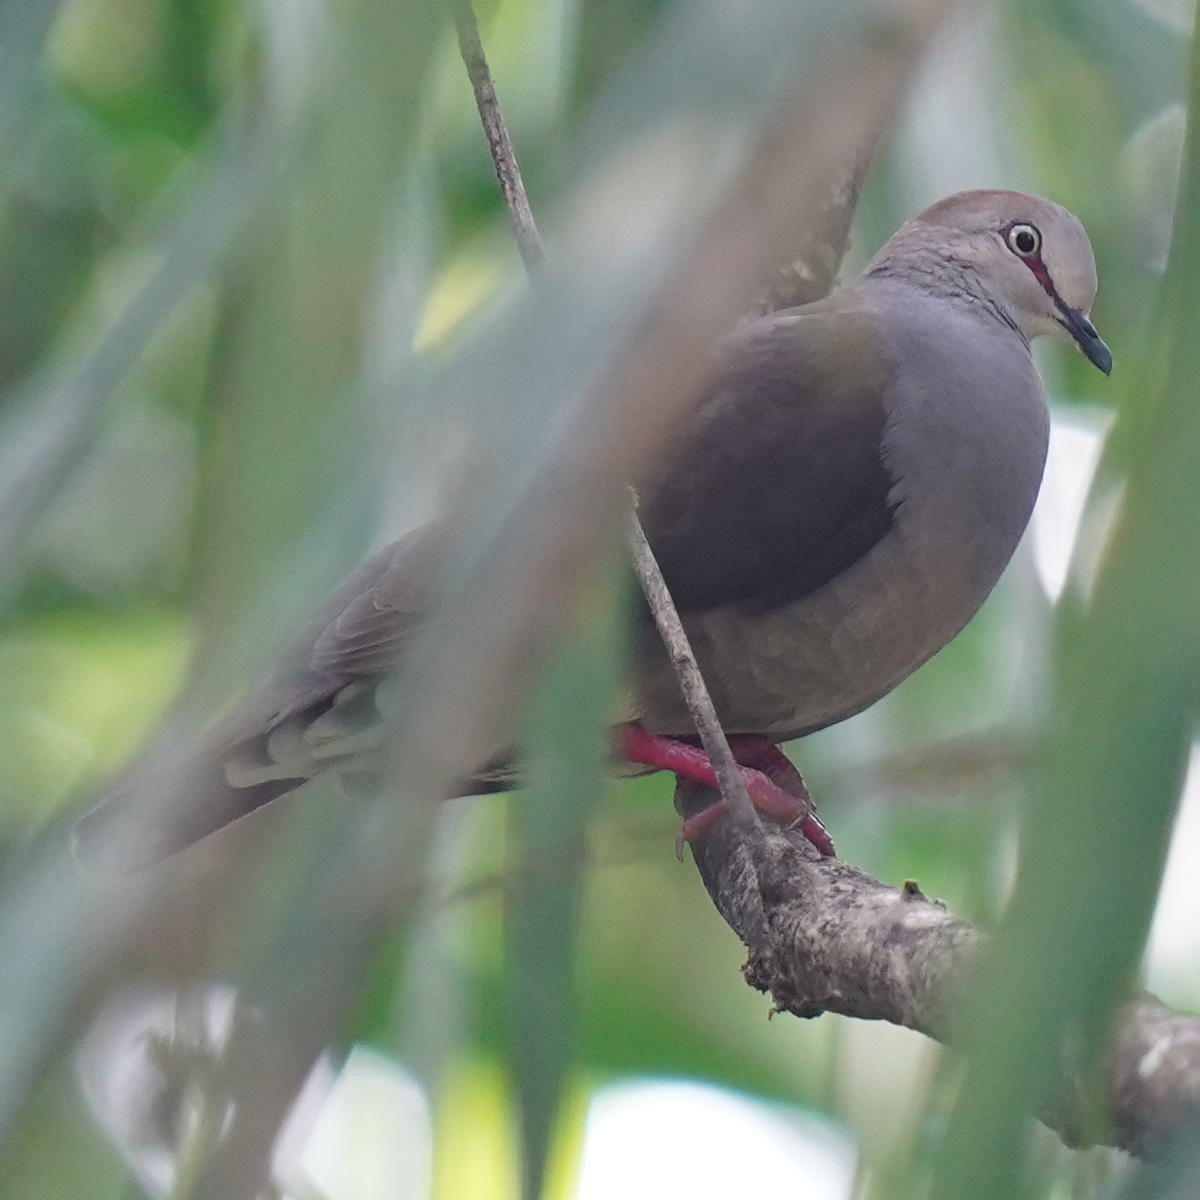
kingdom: Animalia
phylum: Chordata
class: Aves
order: Columbiformes
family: Columbidae
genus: Leptotila
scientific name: Leptotila cassinii
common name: Grey-chested dove
